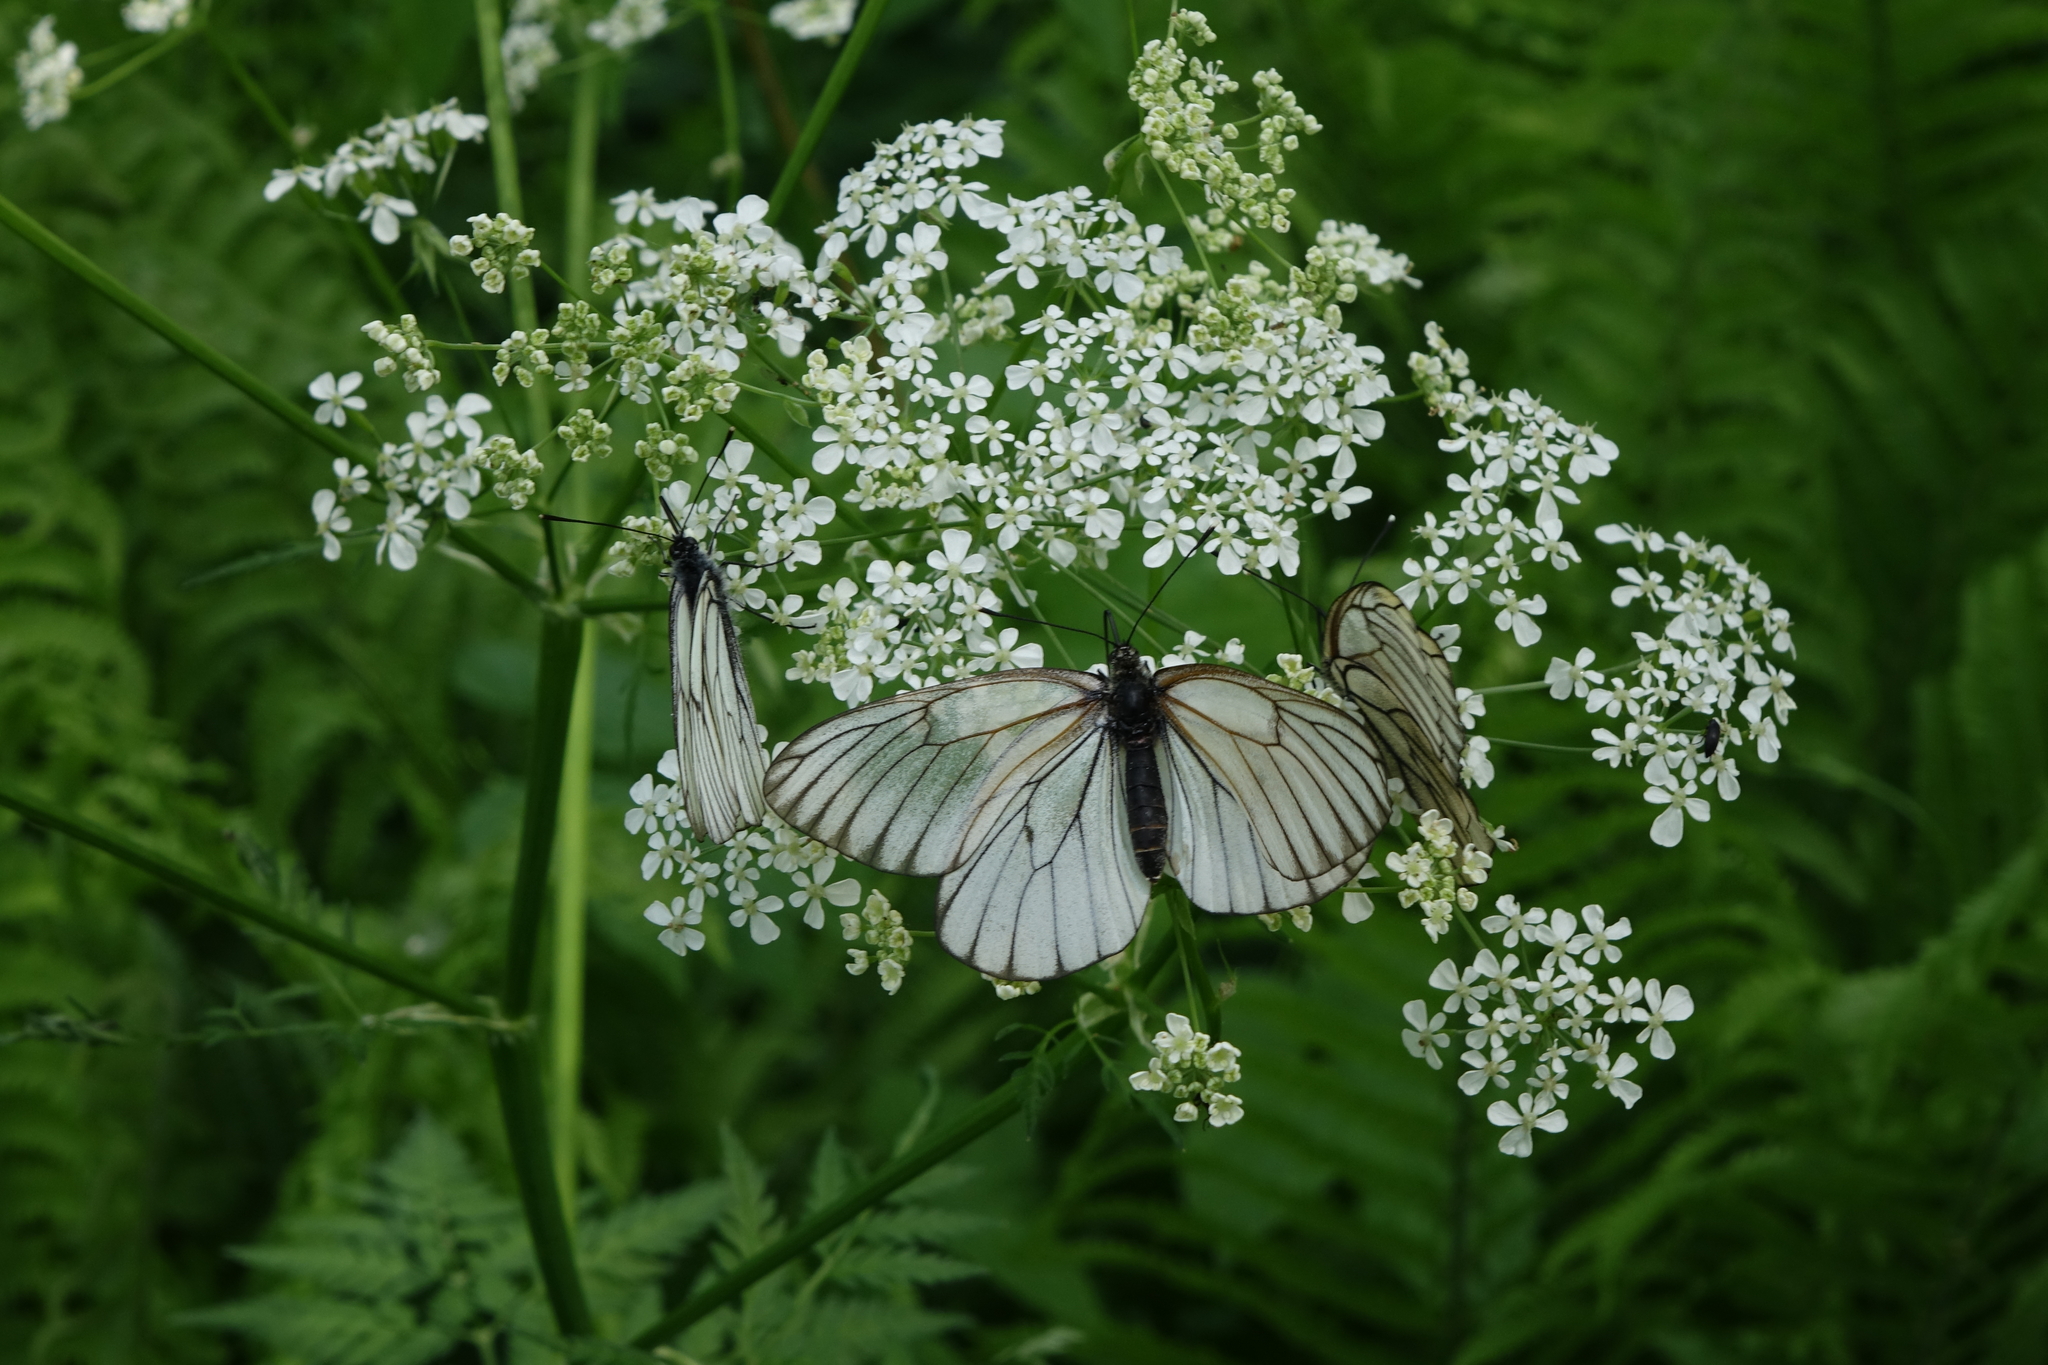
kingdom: Animalia
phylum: Arthropoda
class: Insecta
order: Lepidoptera
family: Pieridae
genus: Aporia
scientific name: Aporia crataegi
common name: Black-veined white
